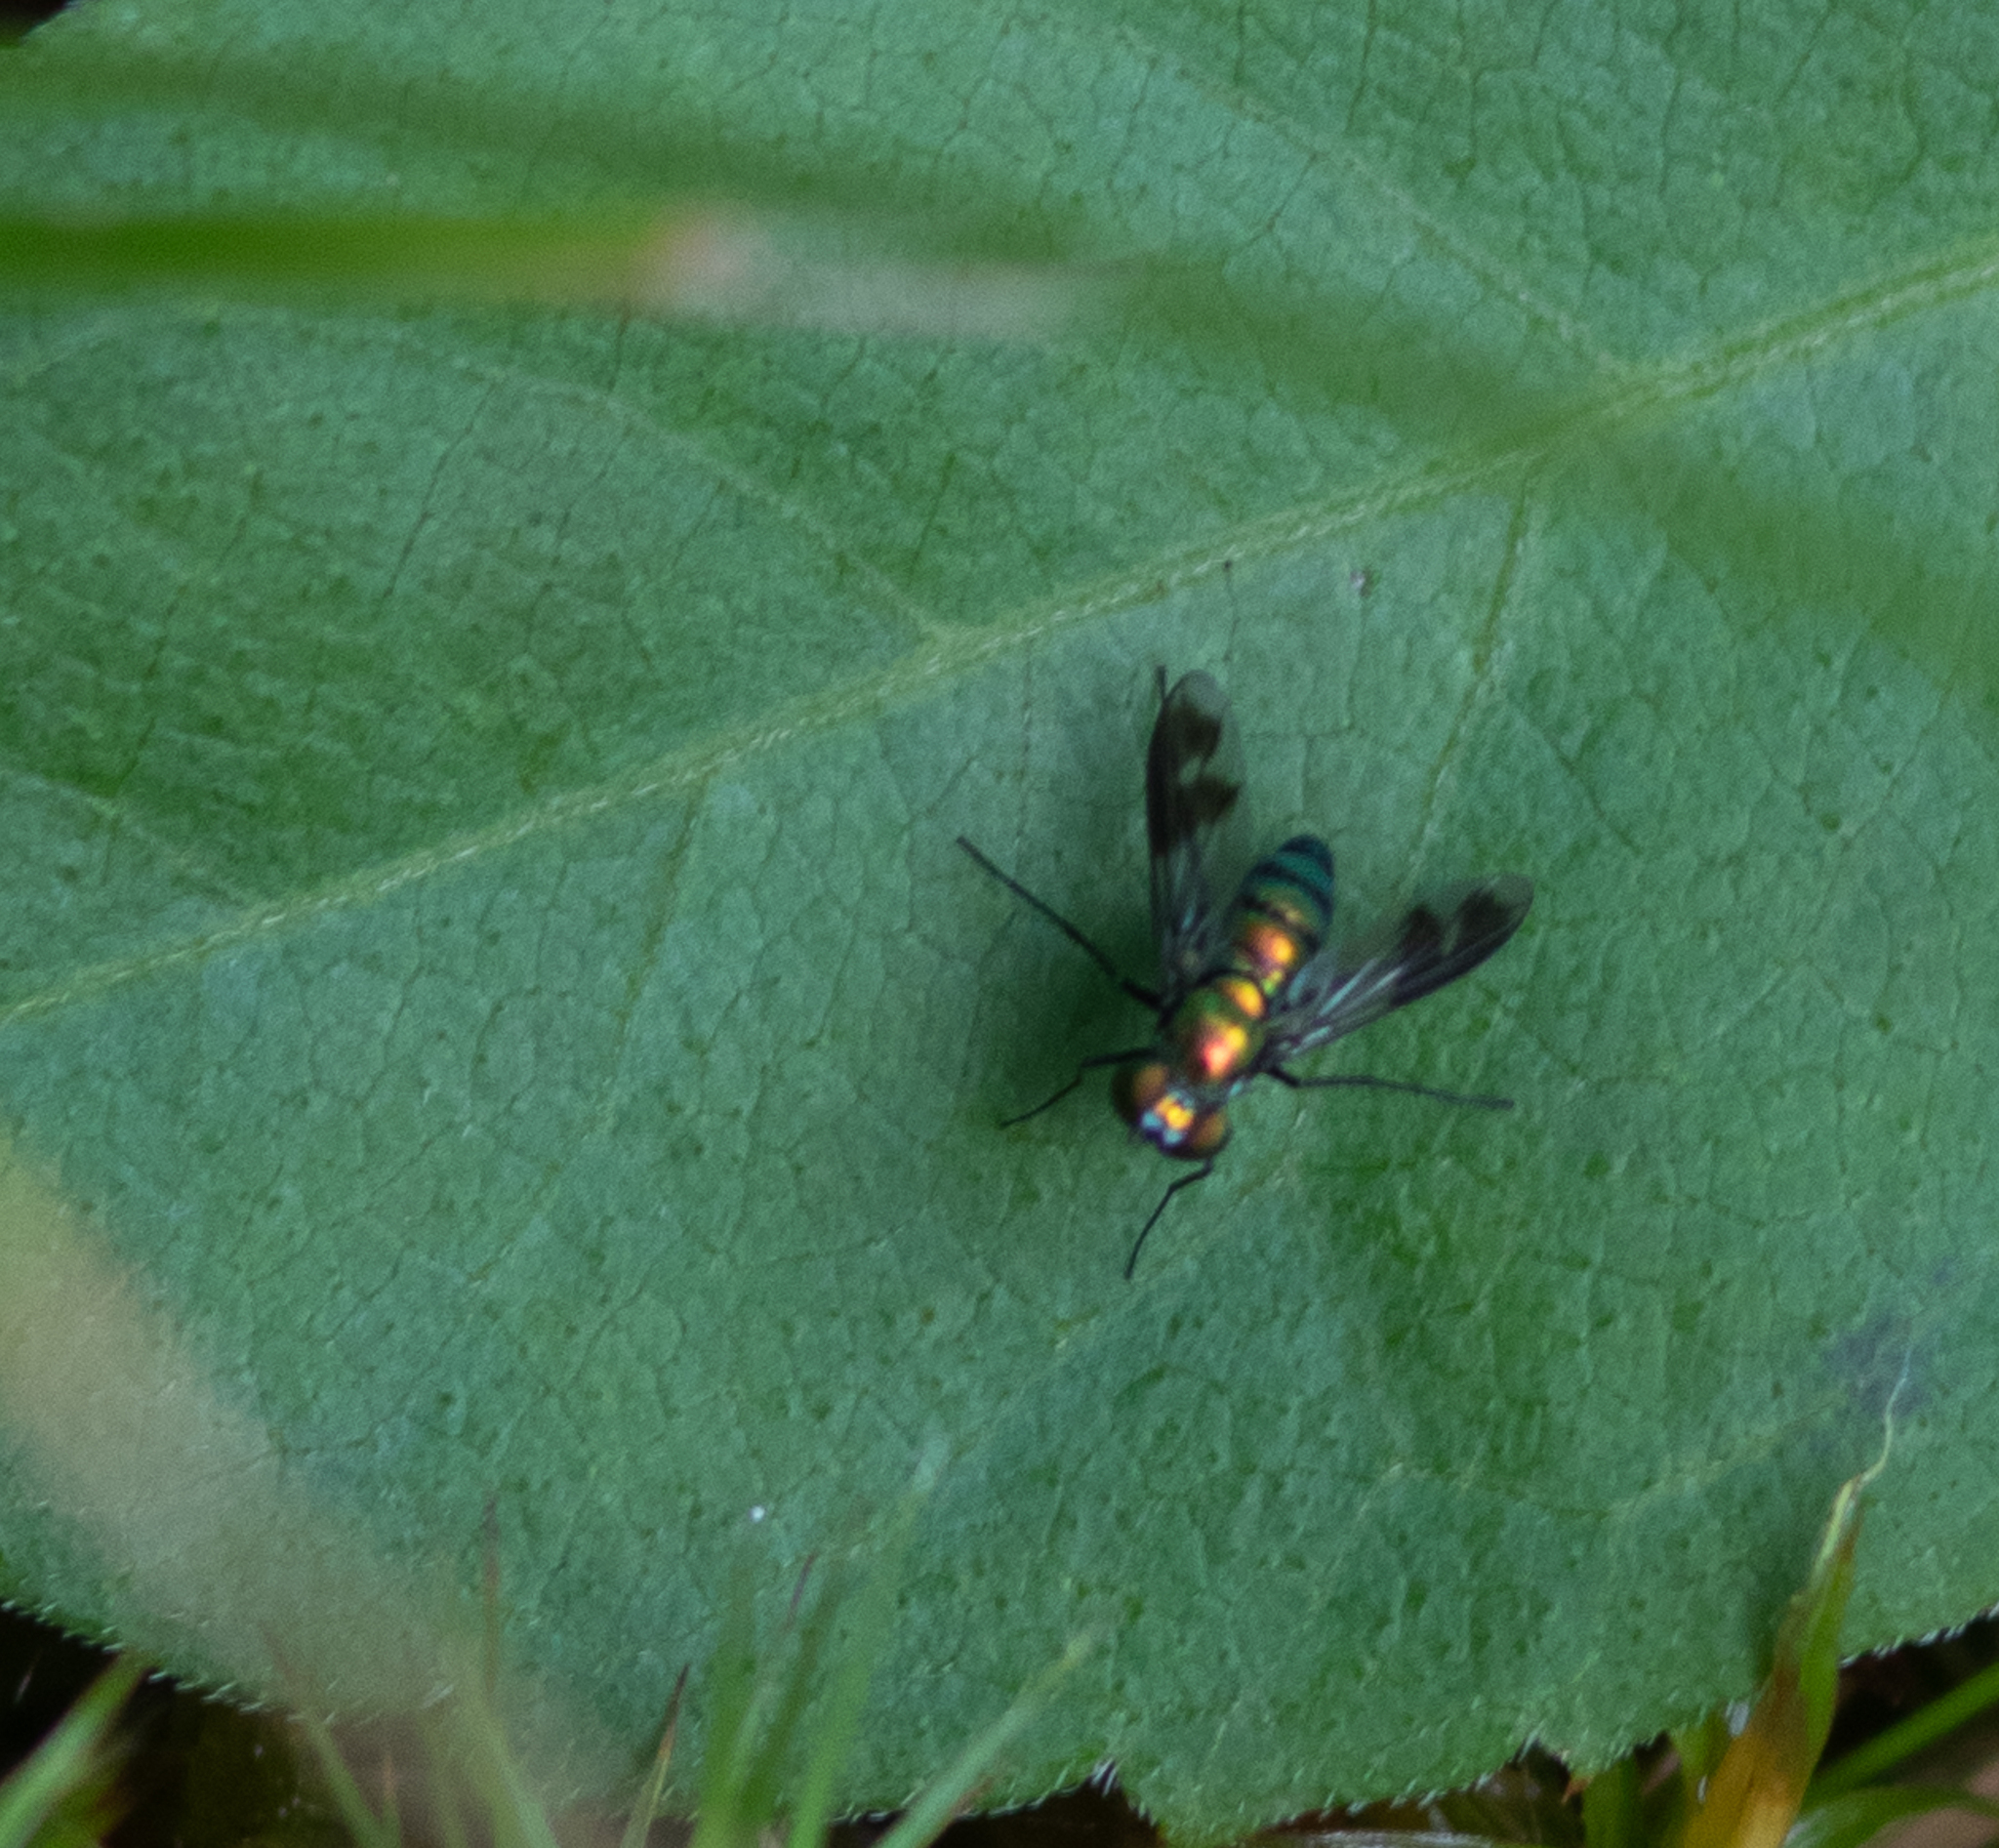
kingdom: Animalia
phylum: Arthropoda
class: Insecta
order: Diptera
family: Dolichopodidae
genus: Condylostylus
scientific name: Condylostylus patibulatus
